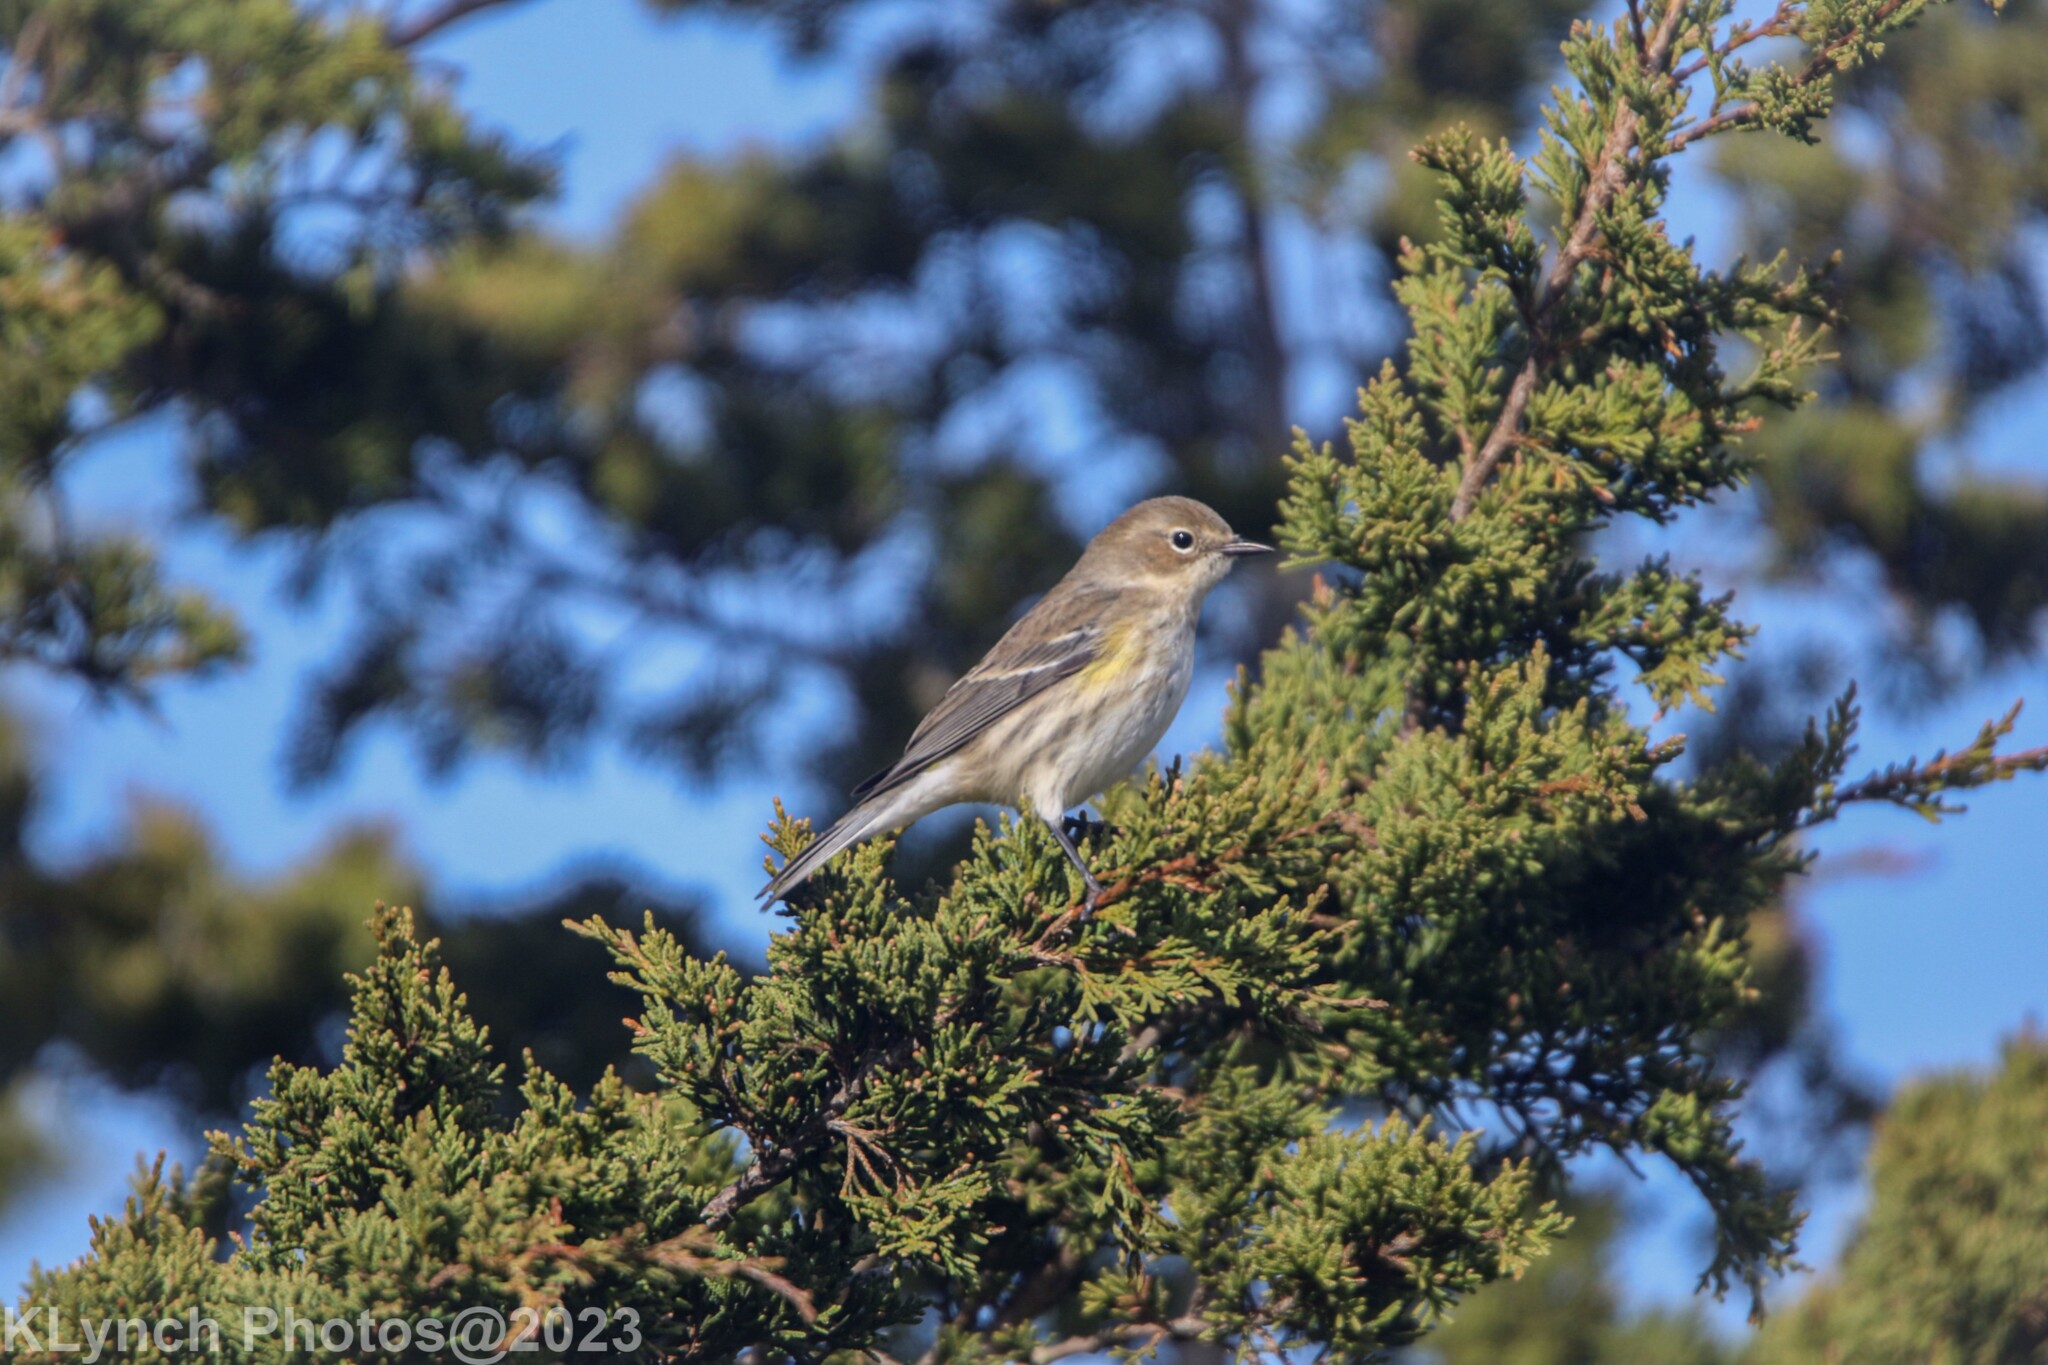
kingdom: Animalia
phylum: Chordata
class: Aves
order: Passeriformes
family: Parulidae
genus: Setophaga
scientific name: Setophaga coronata
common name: Myrtle warbler
